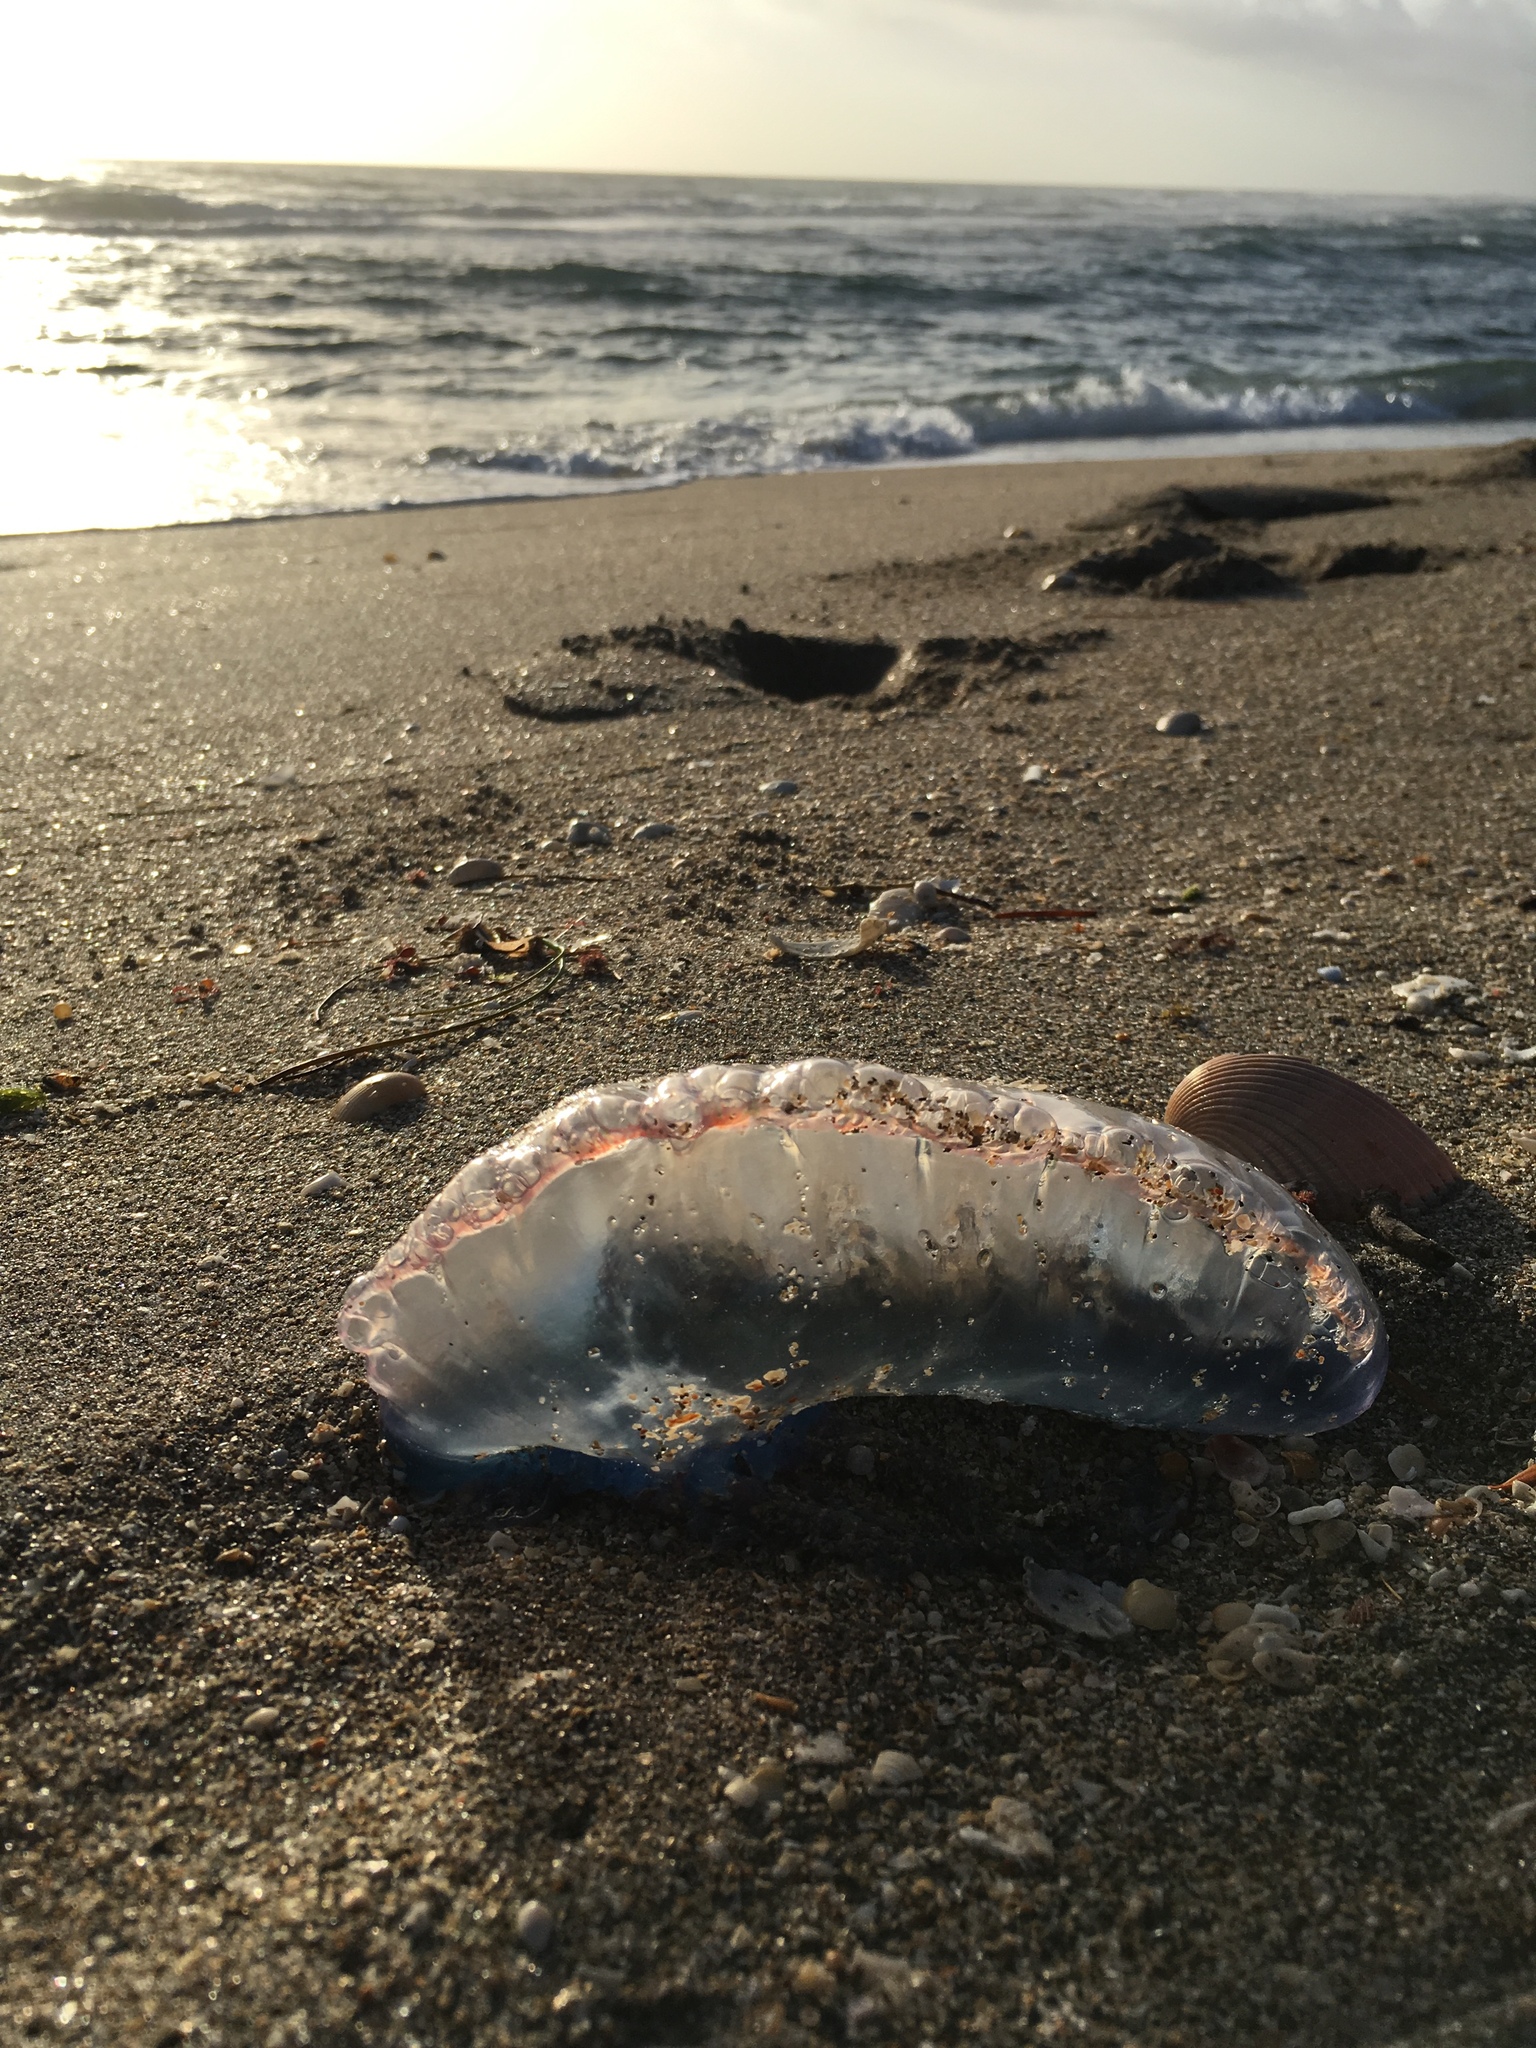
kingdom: Animalia
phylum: Cnidaria
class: Hydrozoa
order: Siphonophorae
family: Physaliidae
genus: Physalia
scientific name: Physalia physalis
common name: Portuguese man-of-war
